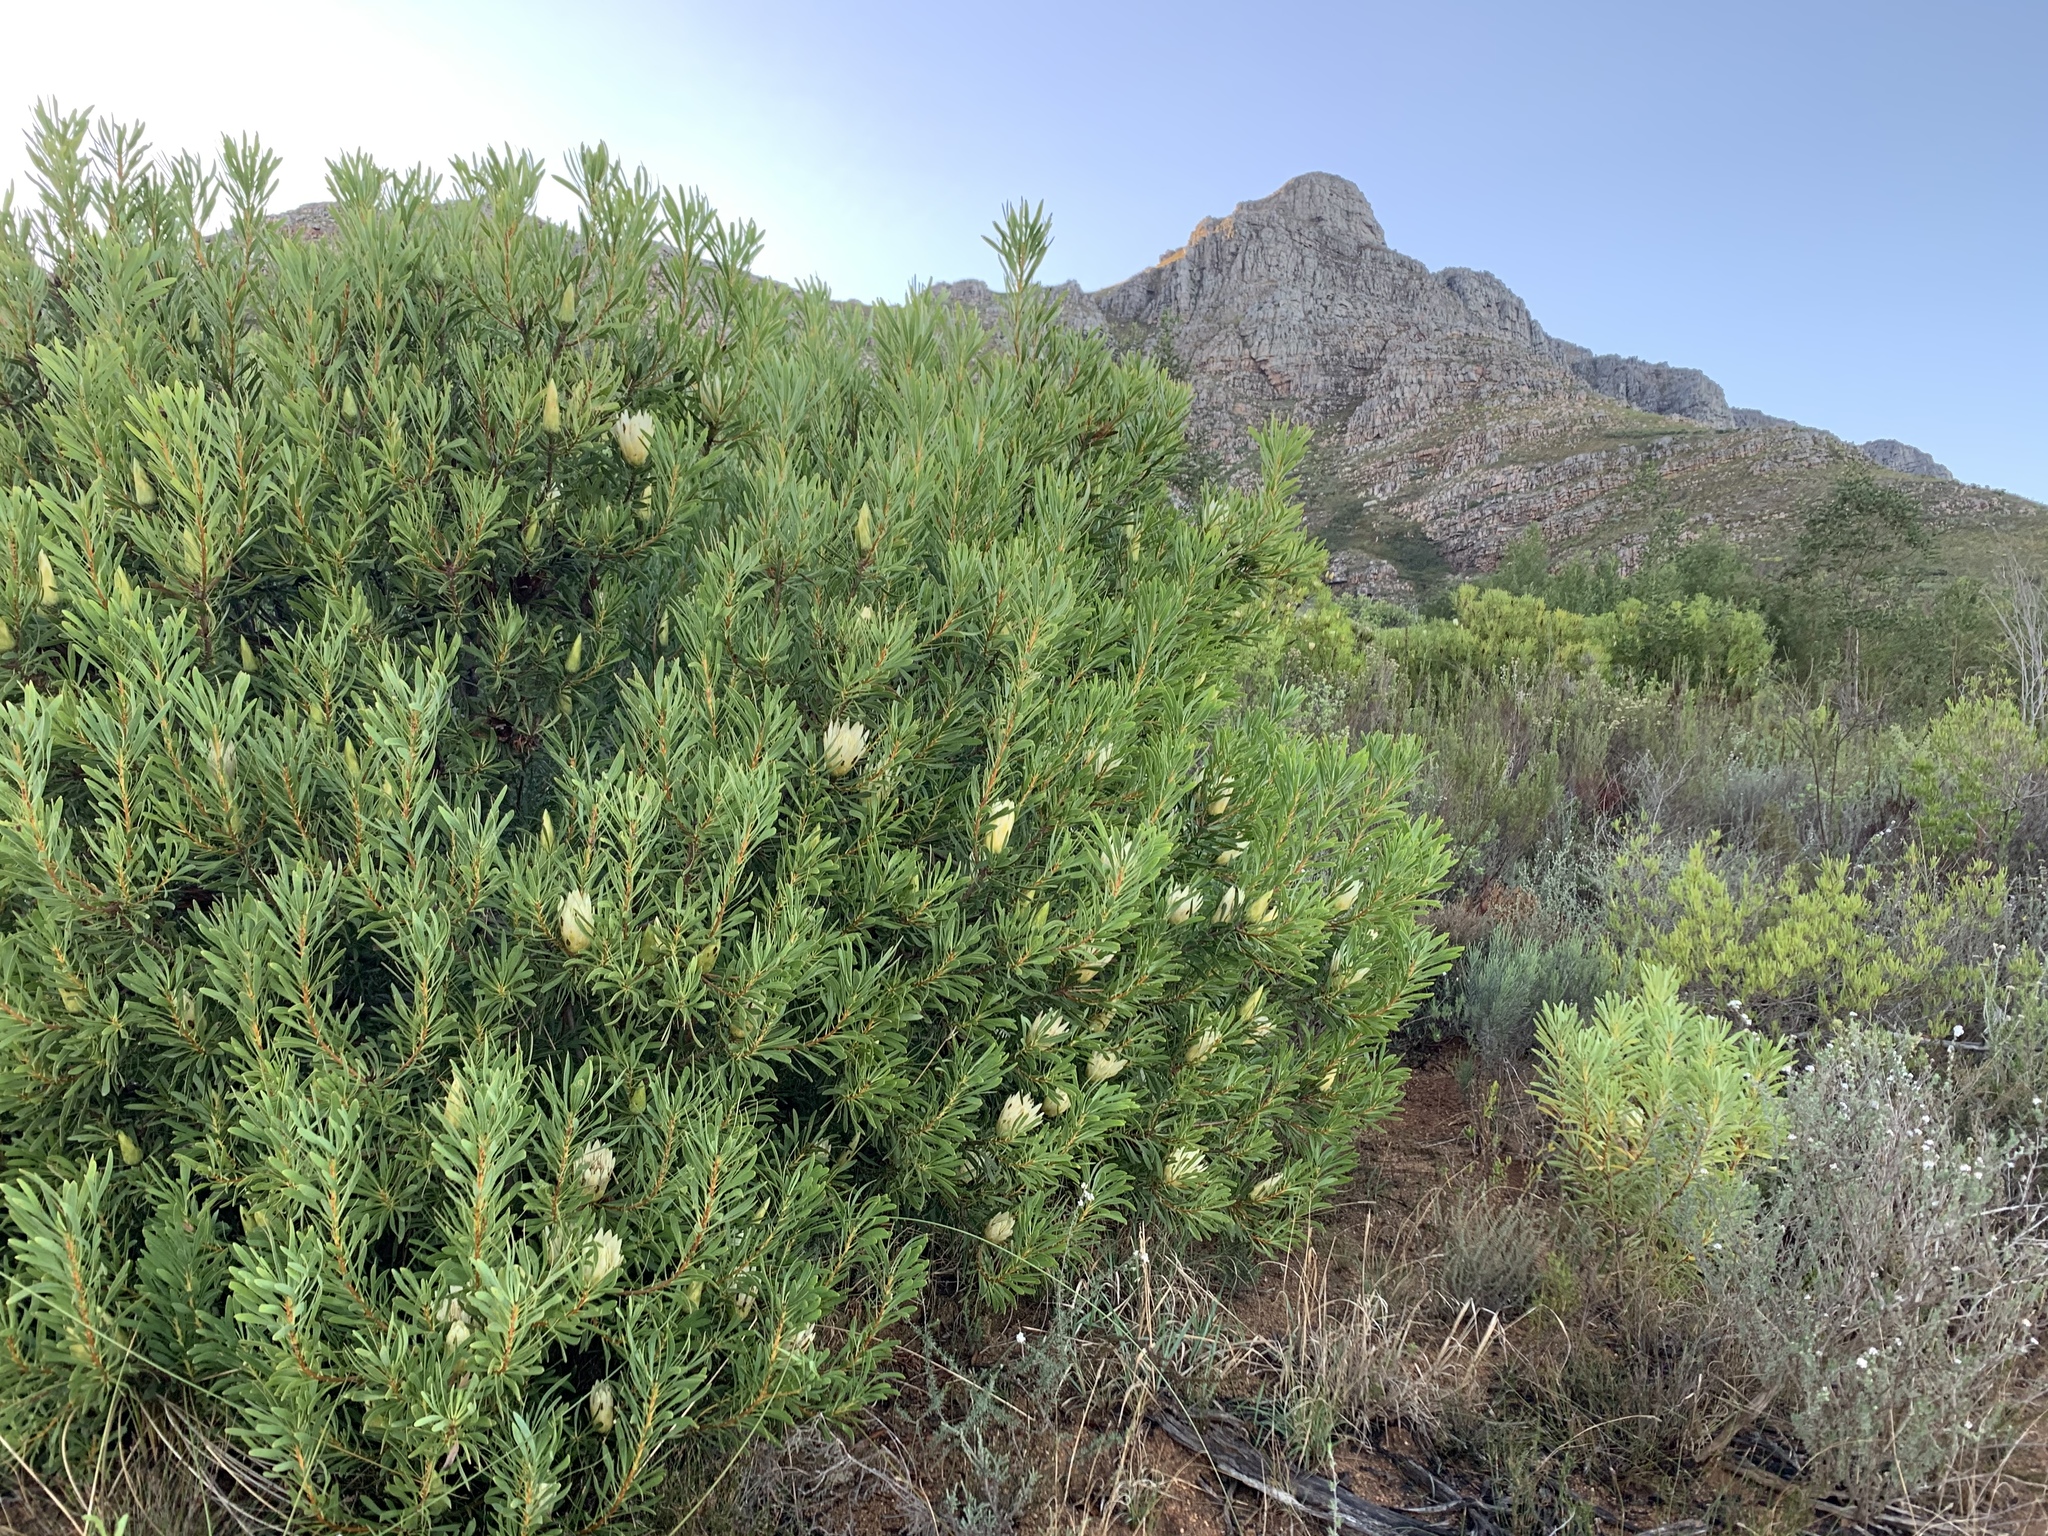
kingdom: Plantae
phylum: Tracheophyta
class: Magnoliopsida
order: Proteales
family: Proteaceae
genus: Protea
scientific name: Protea repens
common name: Sugarbush
